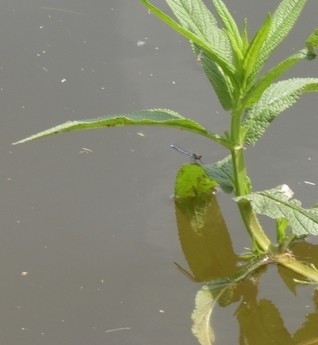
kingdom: Animalia
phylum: Arthropoda
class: Insecta
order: Odonata
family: Coenagrionidae
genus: Erythromma
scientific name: Erythromma najas
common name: Red-eyed damselfly
